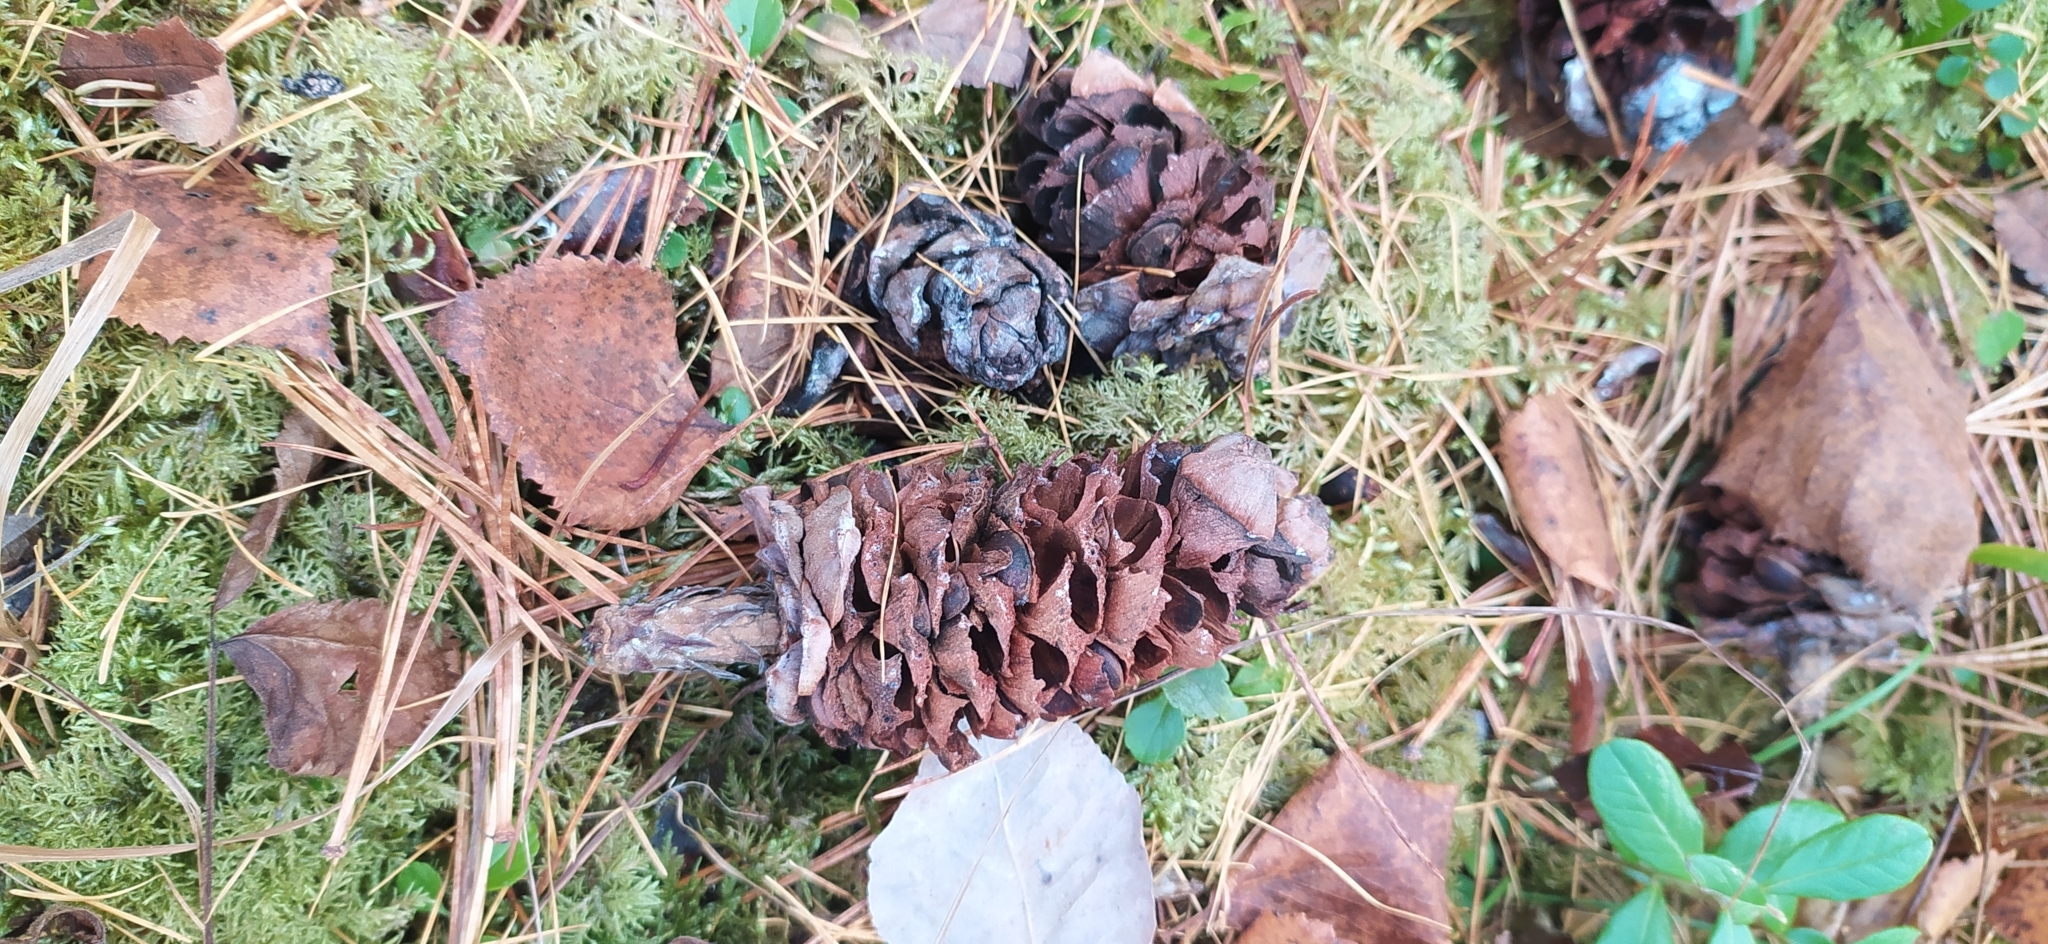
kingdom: Plantae
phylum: Tracheophyta
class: Pinopsida
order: Pinales
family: Pinaceae
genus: Pinus
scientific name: Pinus sibirica
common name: Siberian pine
